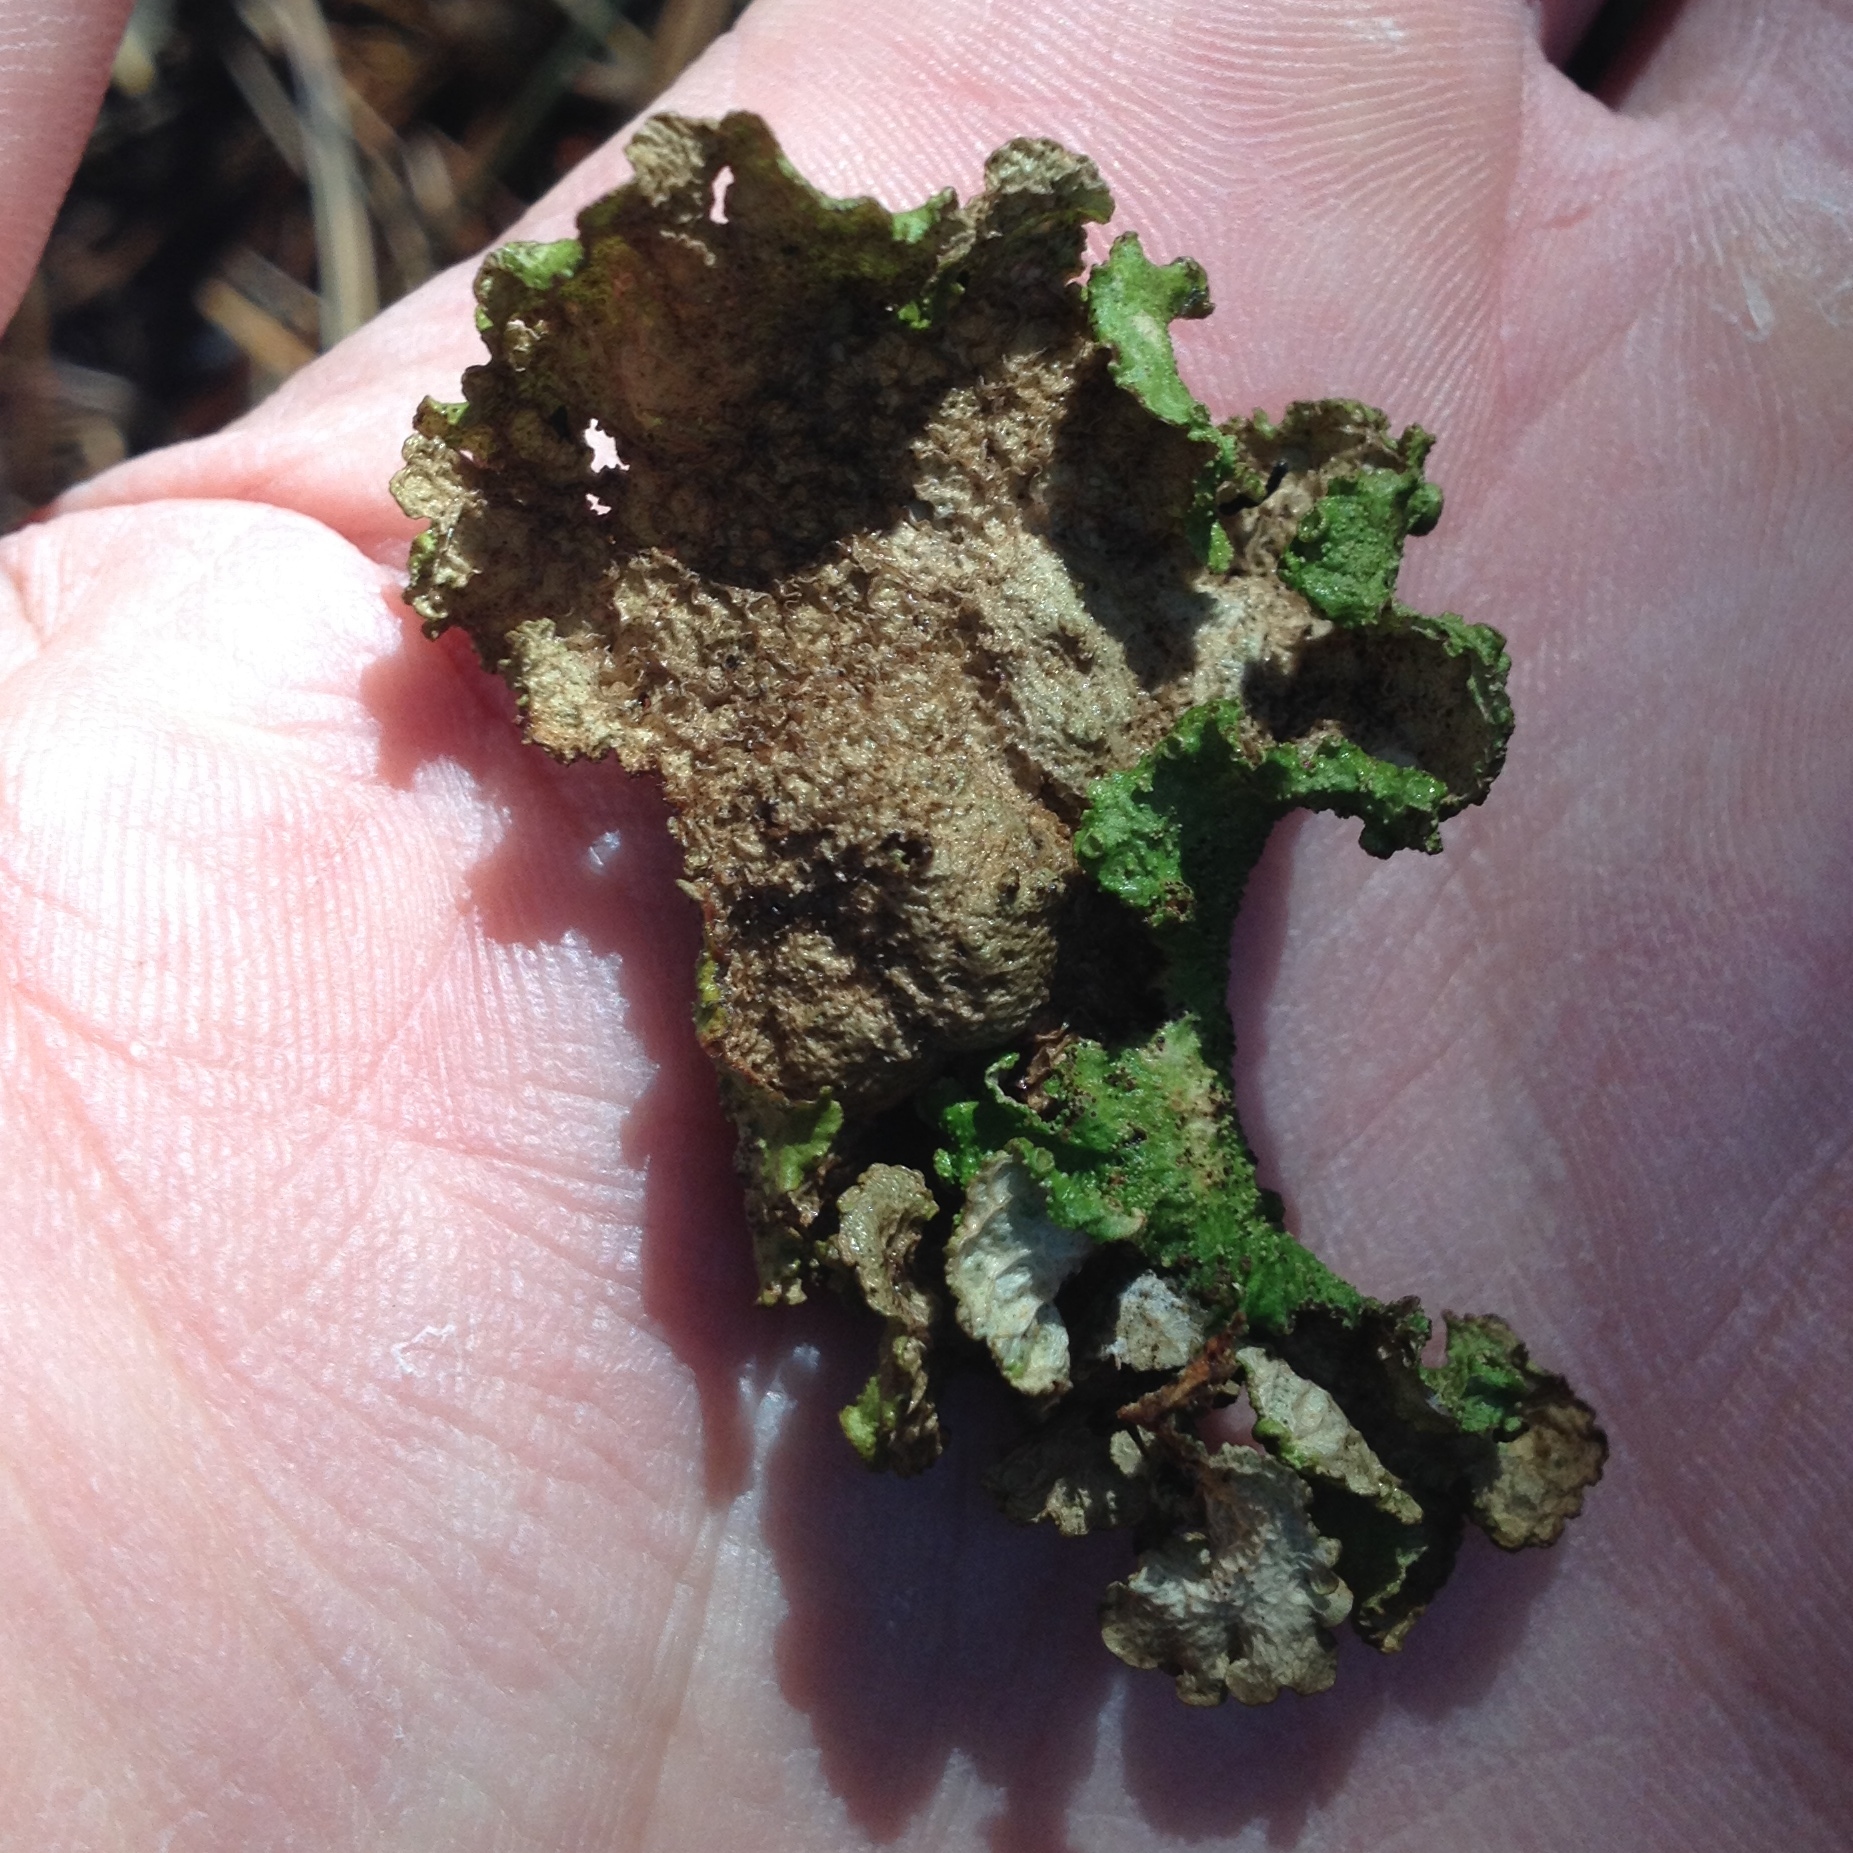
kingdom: Fungi
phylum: Ascomycota
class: Lecanoromycetes
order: Lecanorales
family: Parmeliaceae
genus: Tuckermanopsis
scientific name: Tuckermanopsis platyphylla
